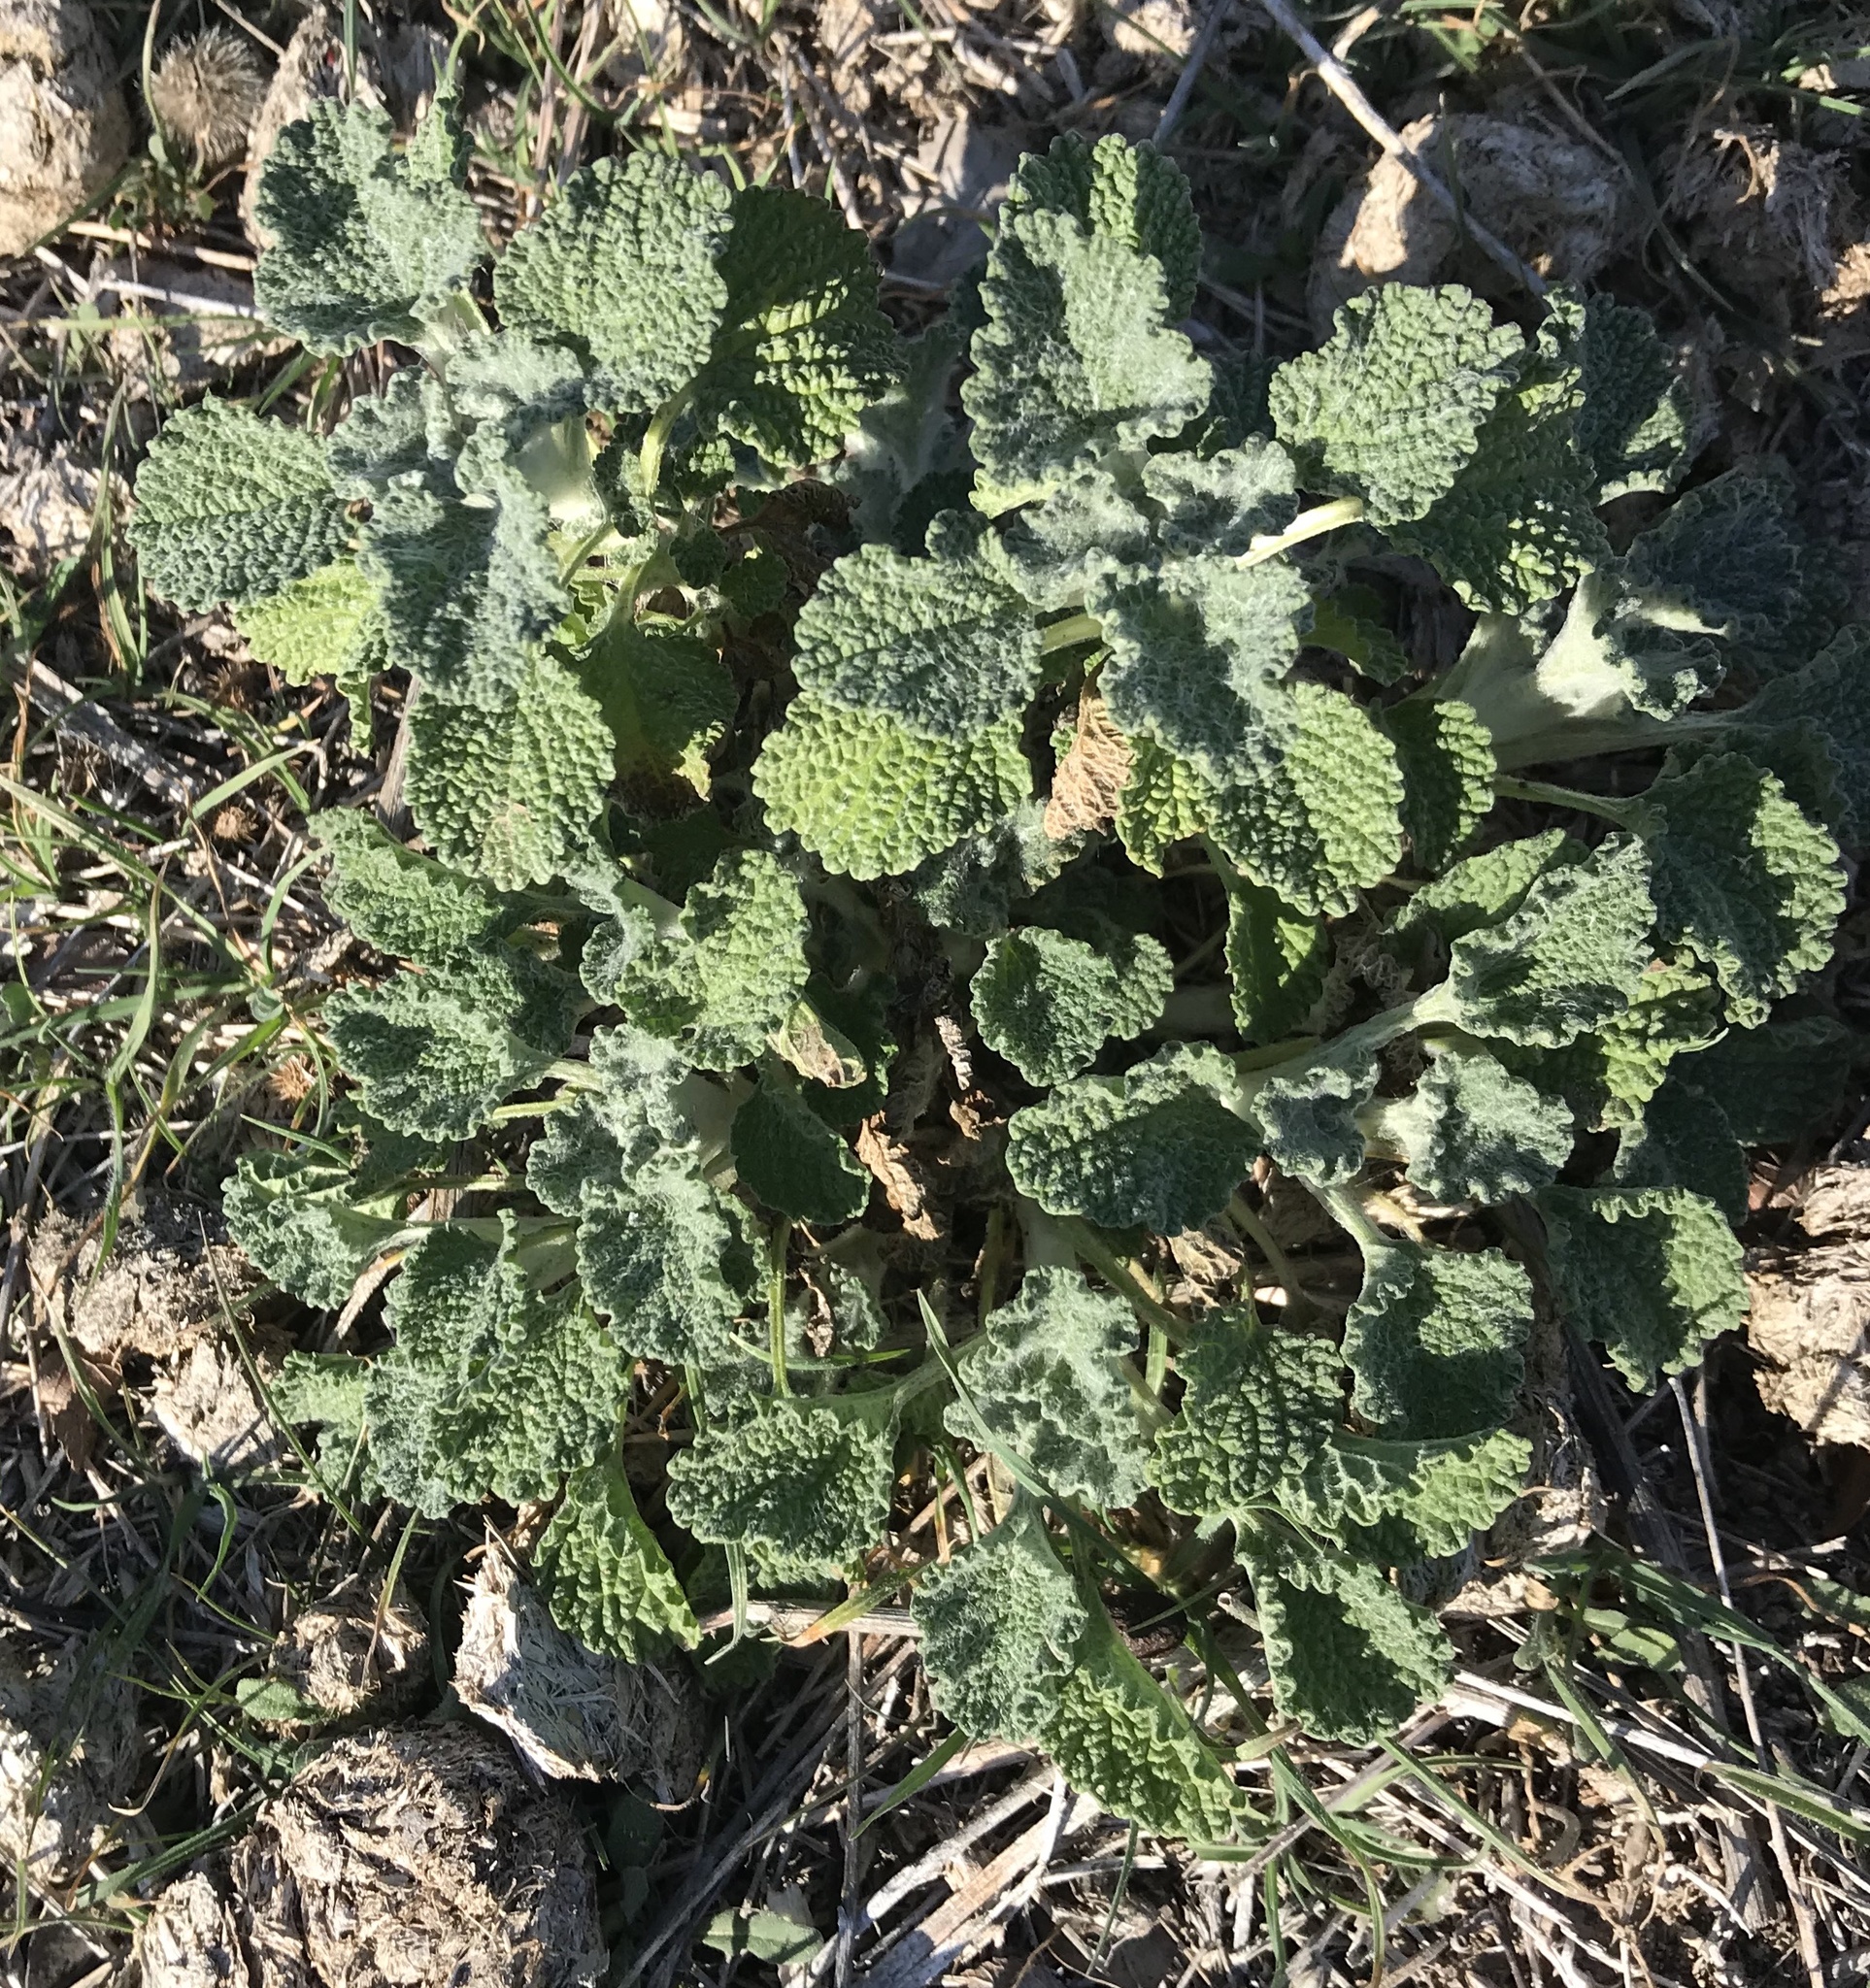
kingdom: Plantae
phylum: Tracheophyta
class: Magnoliopsida
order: Lamiales
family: Lamiaceae
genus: Marrubium
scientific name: Marrubium vulgare
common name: Horehound
